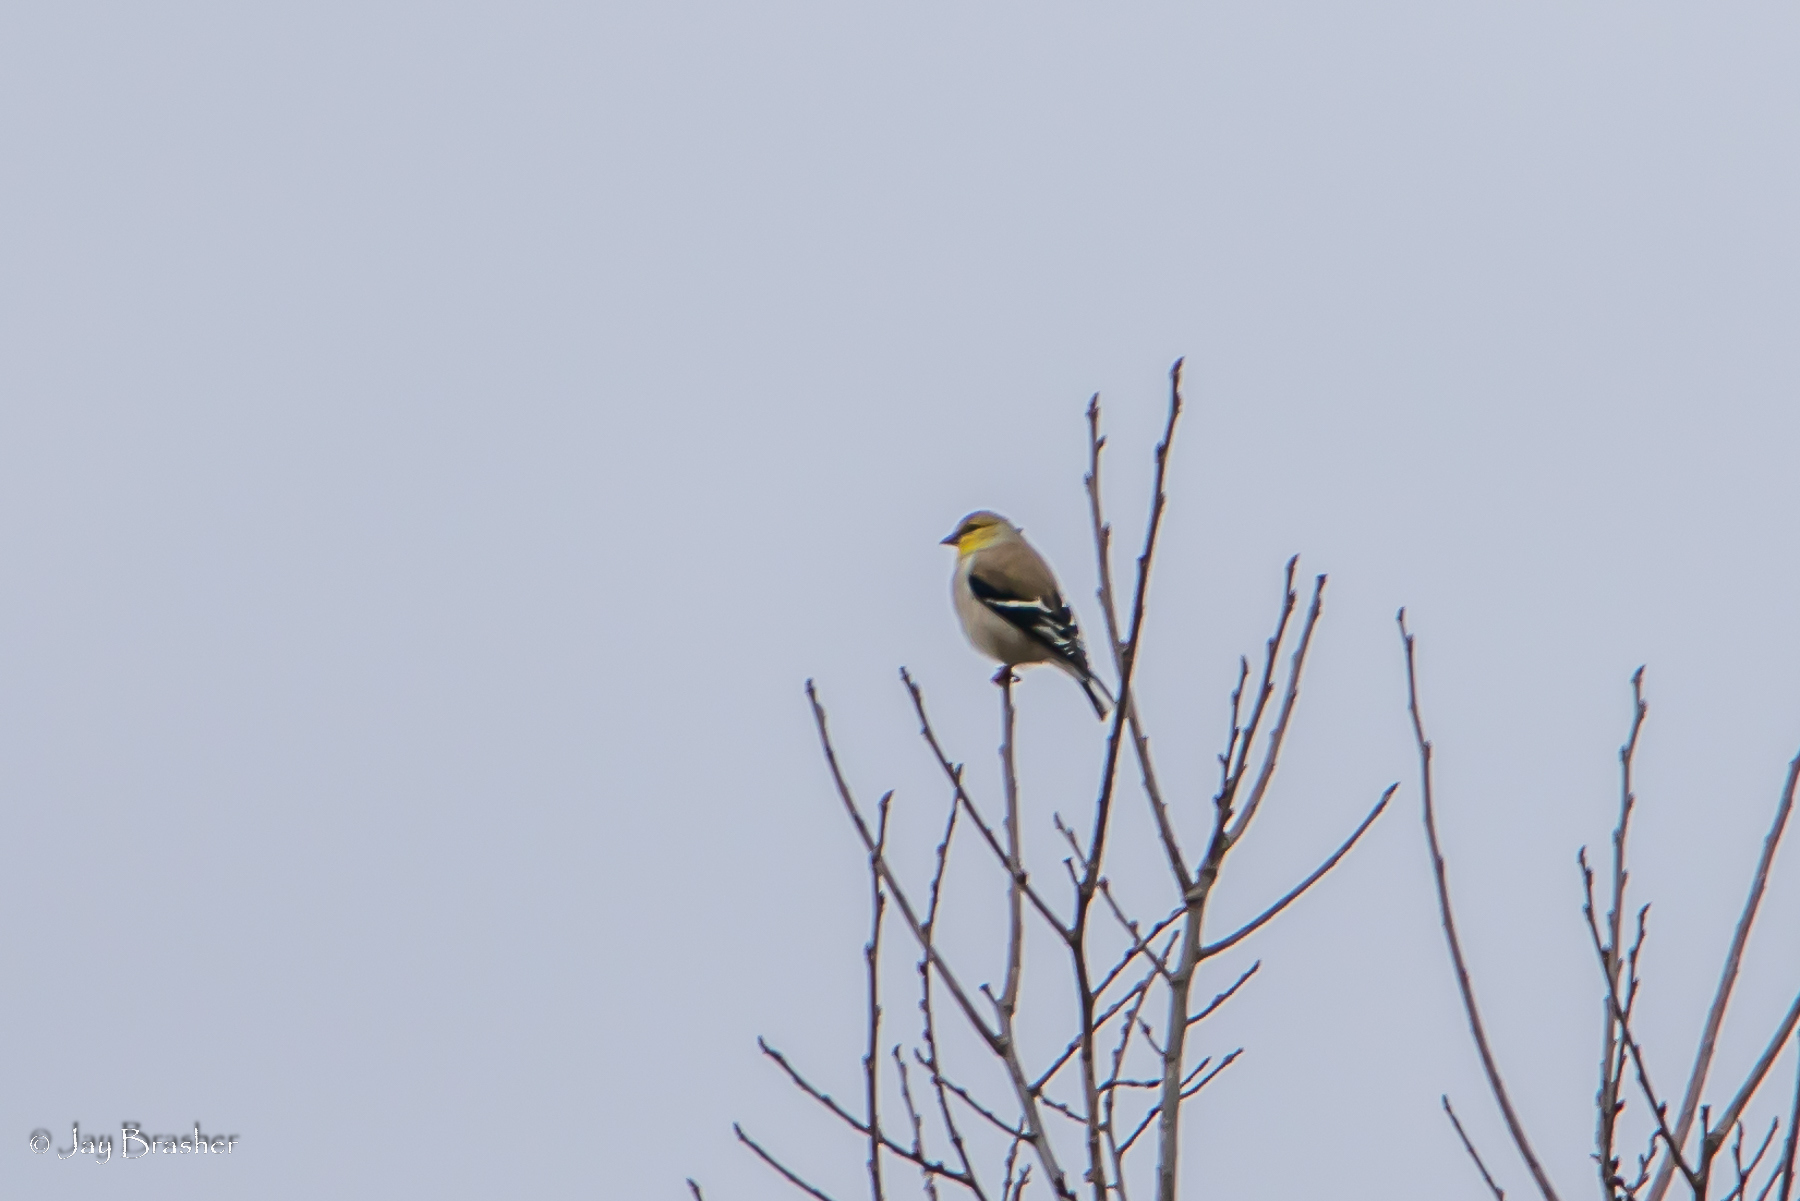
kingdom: Animalia
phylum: Chordata
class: Aves
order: Passeriformes
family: Fringillidae
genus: Spinus
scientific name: Spinus tristis
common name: American goldfinch
